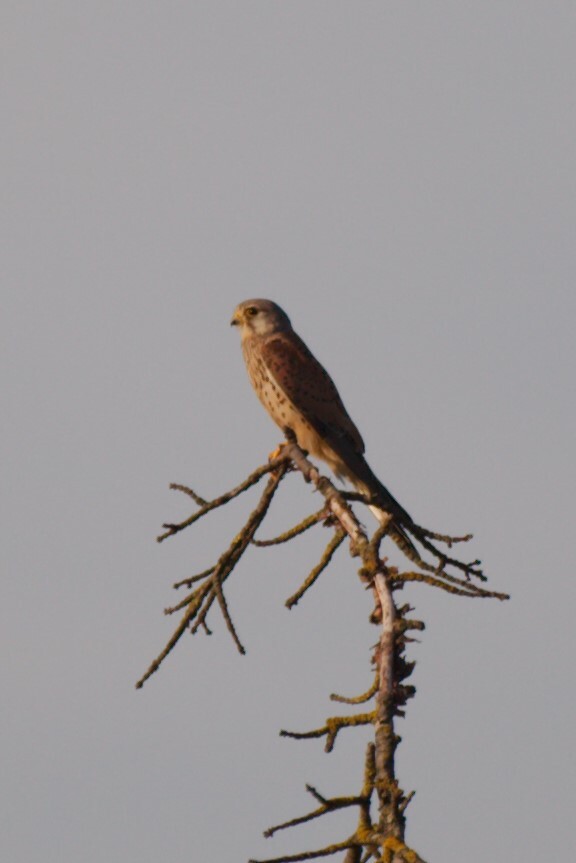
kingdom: Animalia
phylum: Chordata
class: Aves
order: Falconiformes
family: Falconidae
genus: Falco
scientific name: Falco tinnunculus
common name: Common kestrel
